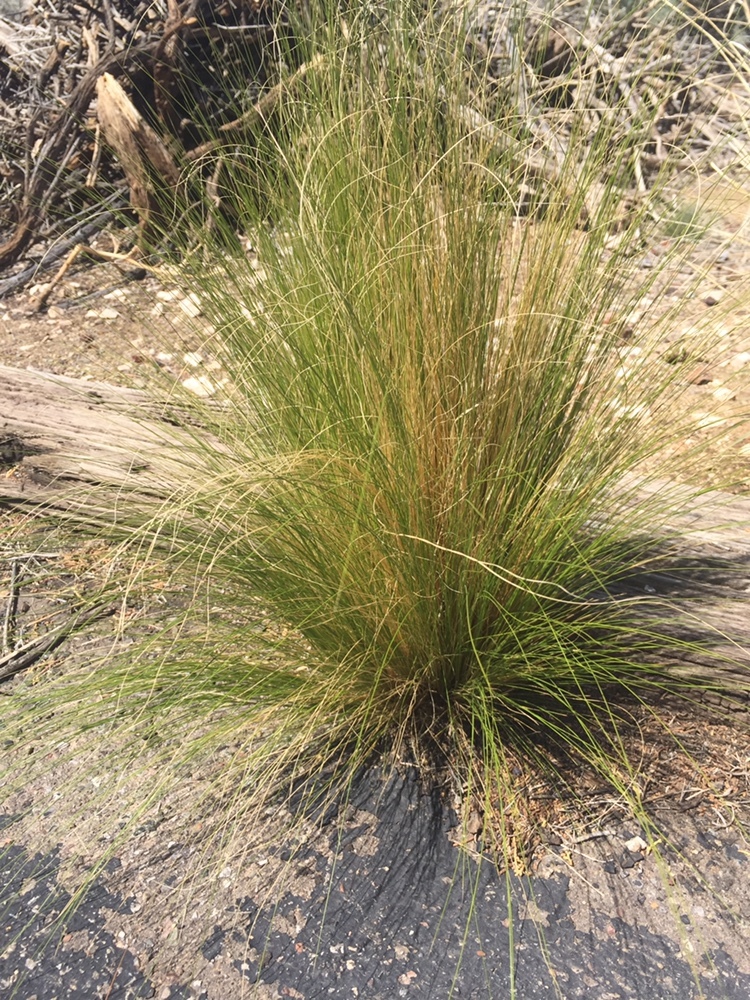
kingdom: Plantae
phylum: Tracheophyta
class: Liliopsida
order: Poales
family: Poaceae
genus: Nassella
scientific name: Nassella tenuissima
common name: Argentine needlegrass
